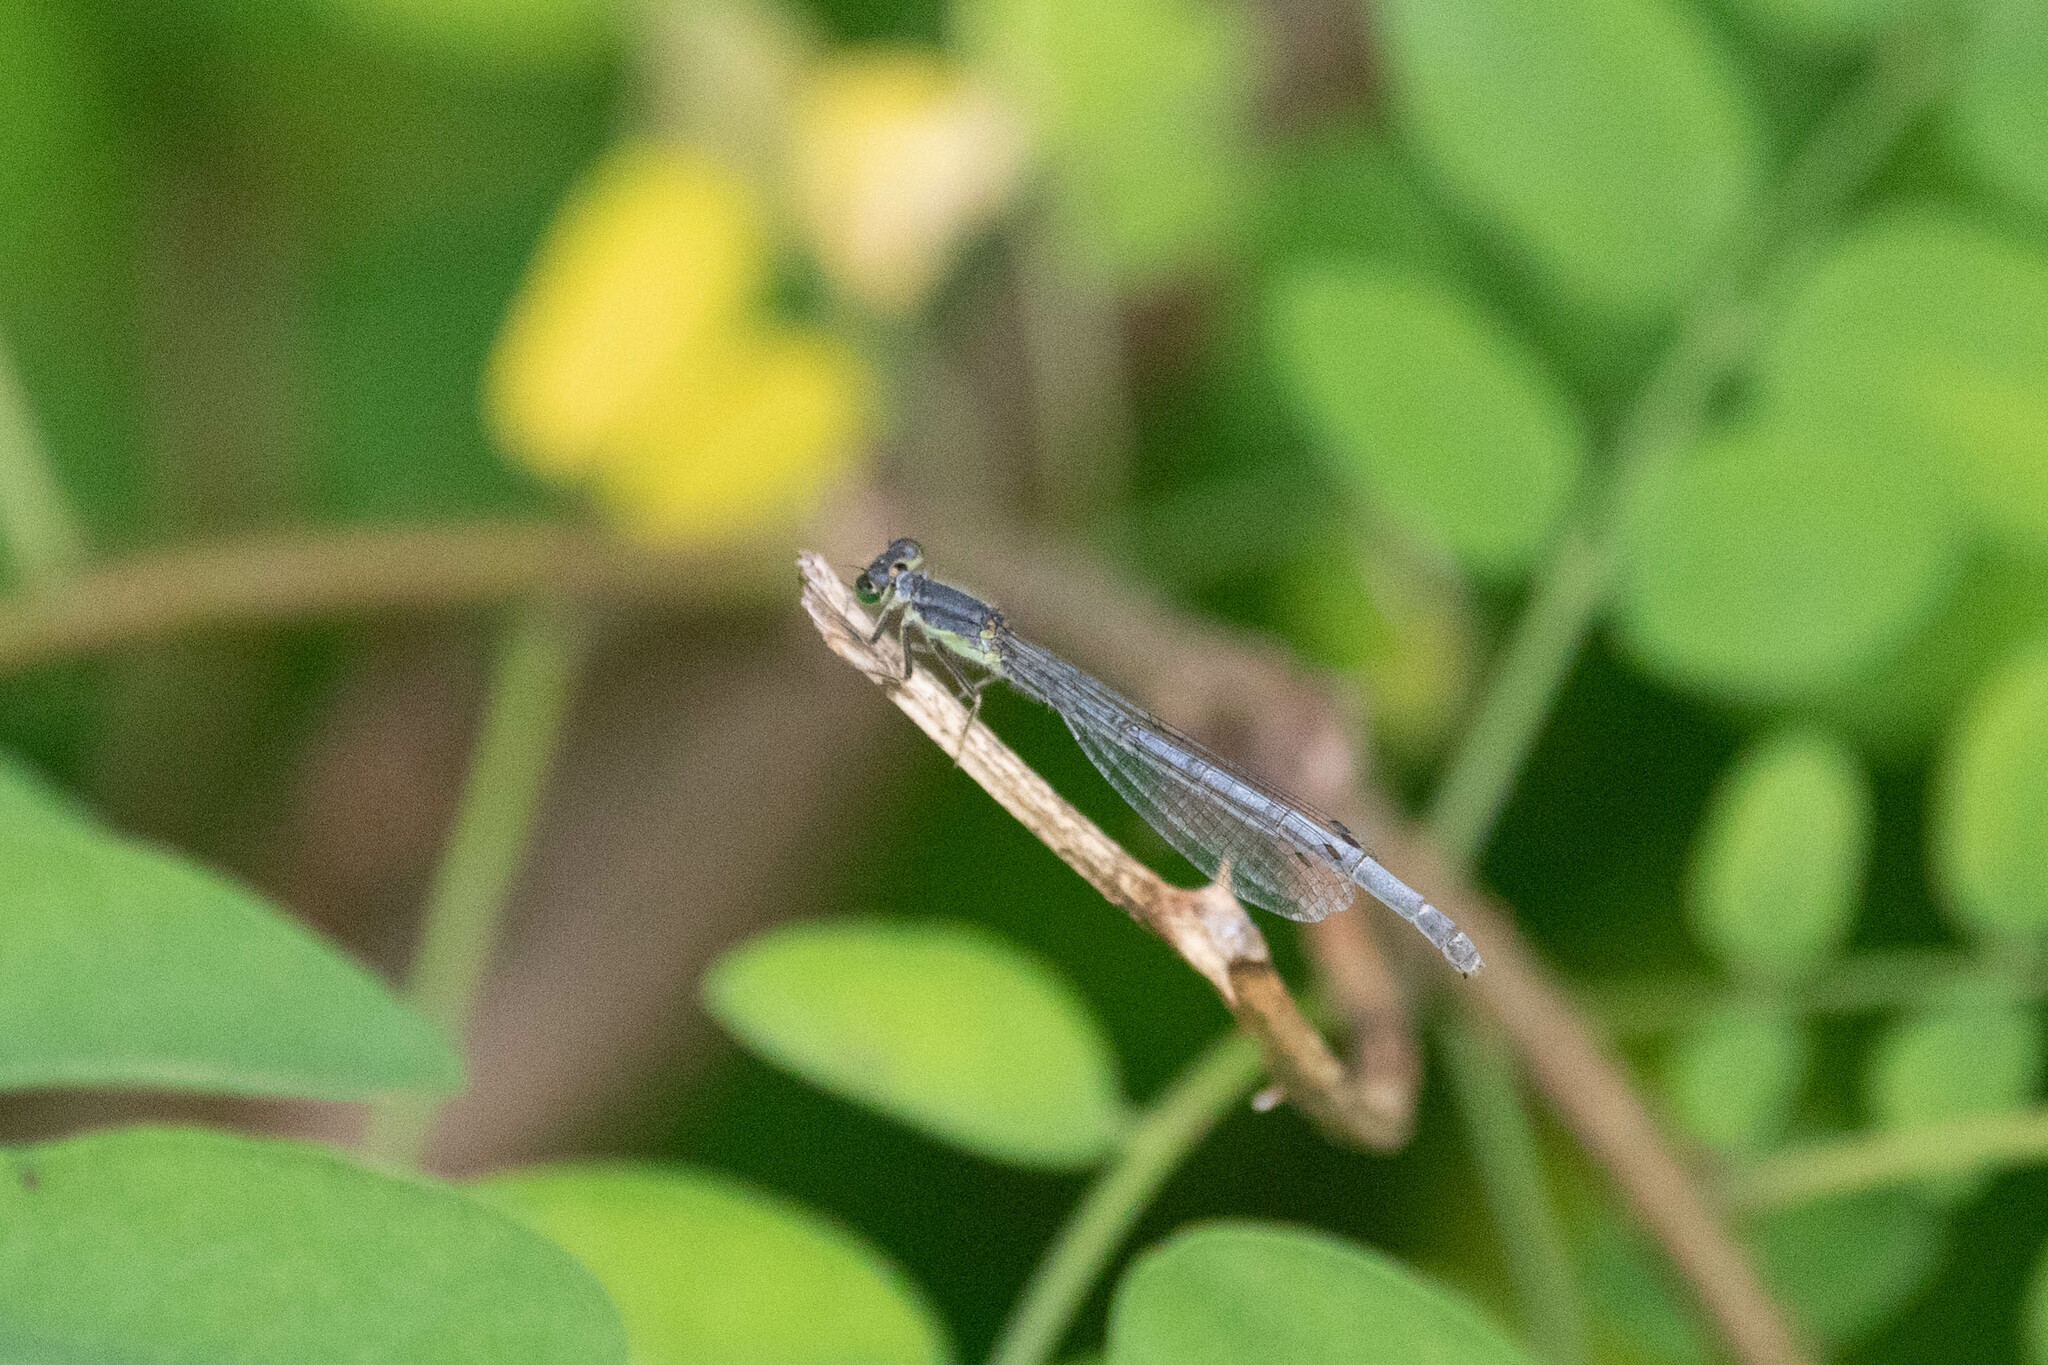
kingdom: Animalia
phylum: Arthropoda
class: Insecta
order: Odonata
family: Coenagrionidae
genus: Ischnura
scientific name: Ischnura verticalis
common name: Eastern forktail
